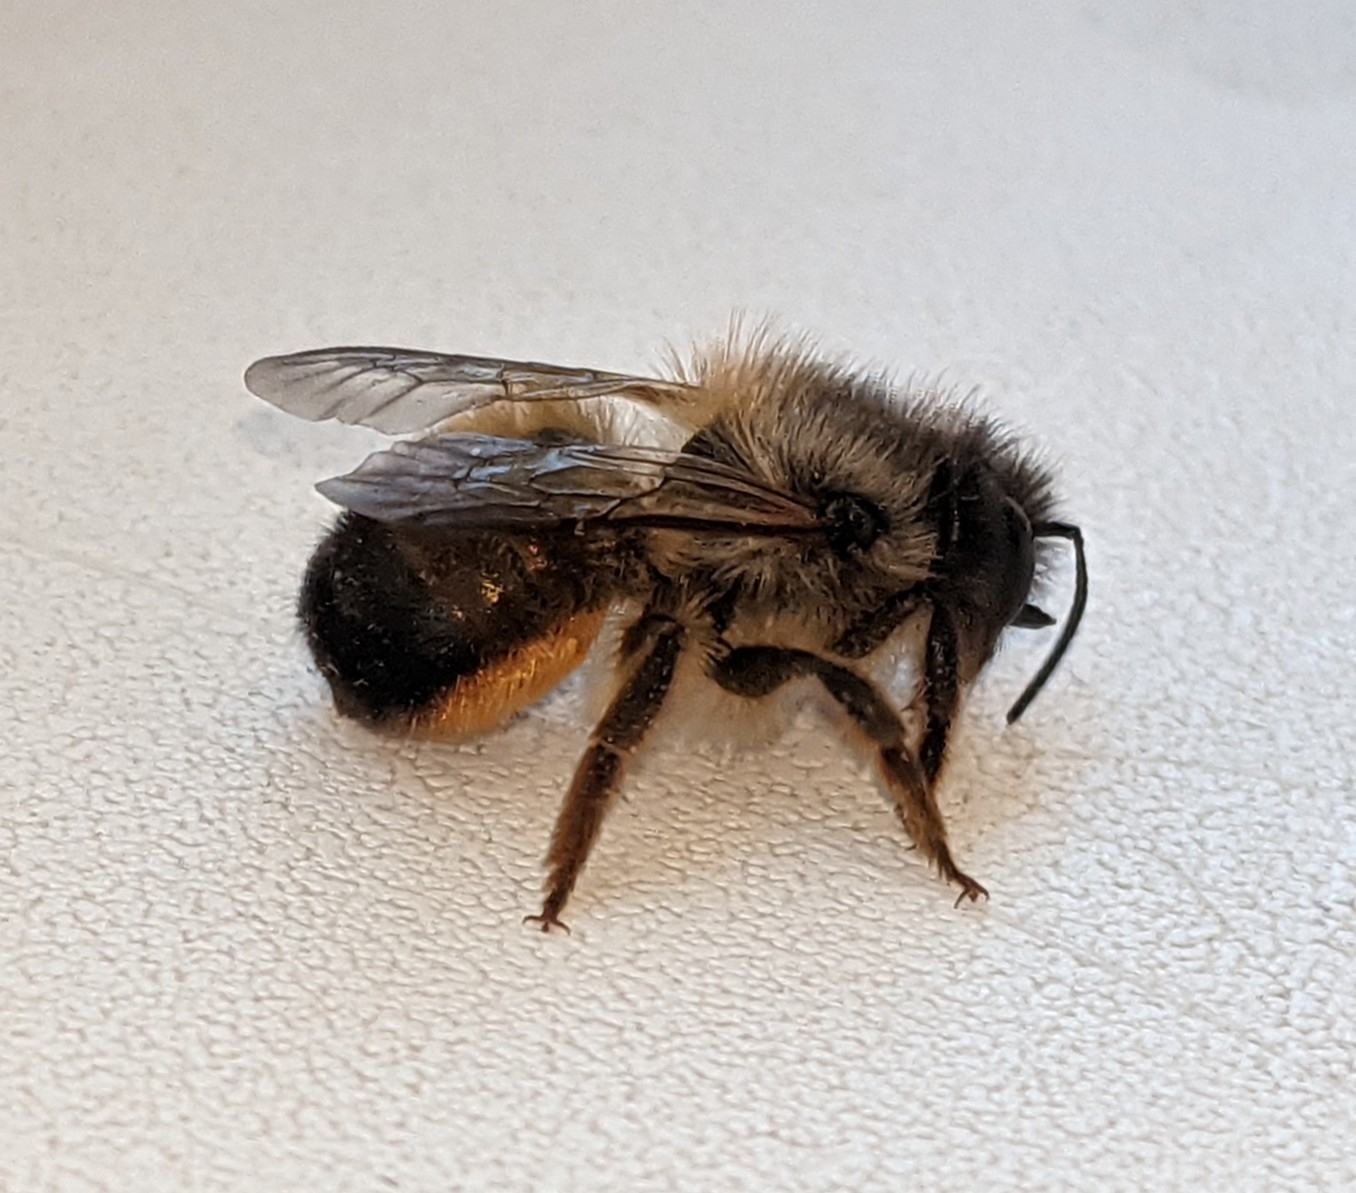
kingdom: Animalia
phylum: Arthropoda
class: Insecta
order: Hymenoptera
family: Megachilidae
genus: Osmia
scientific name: Osmia bicornis
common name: Red mason bee
